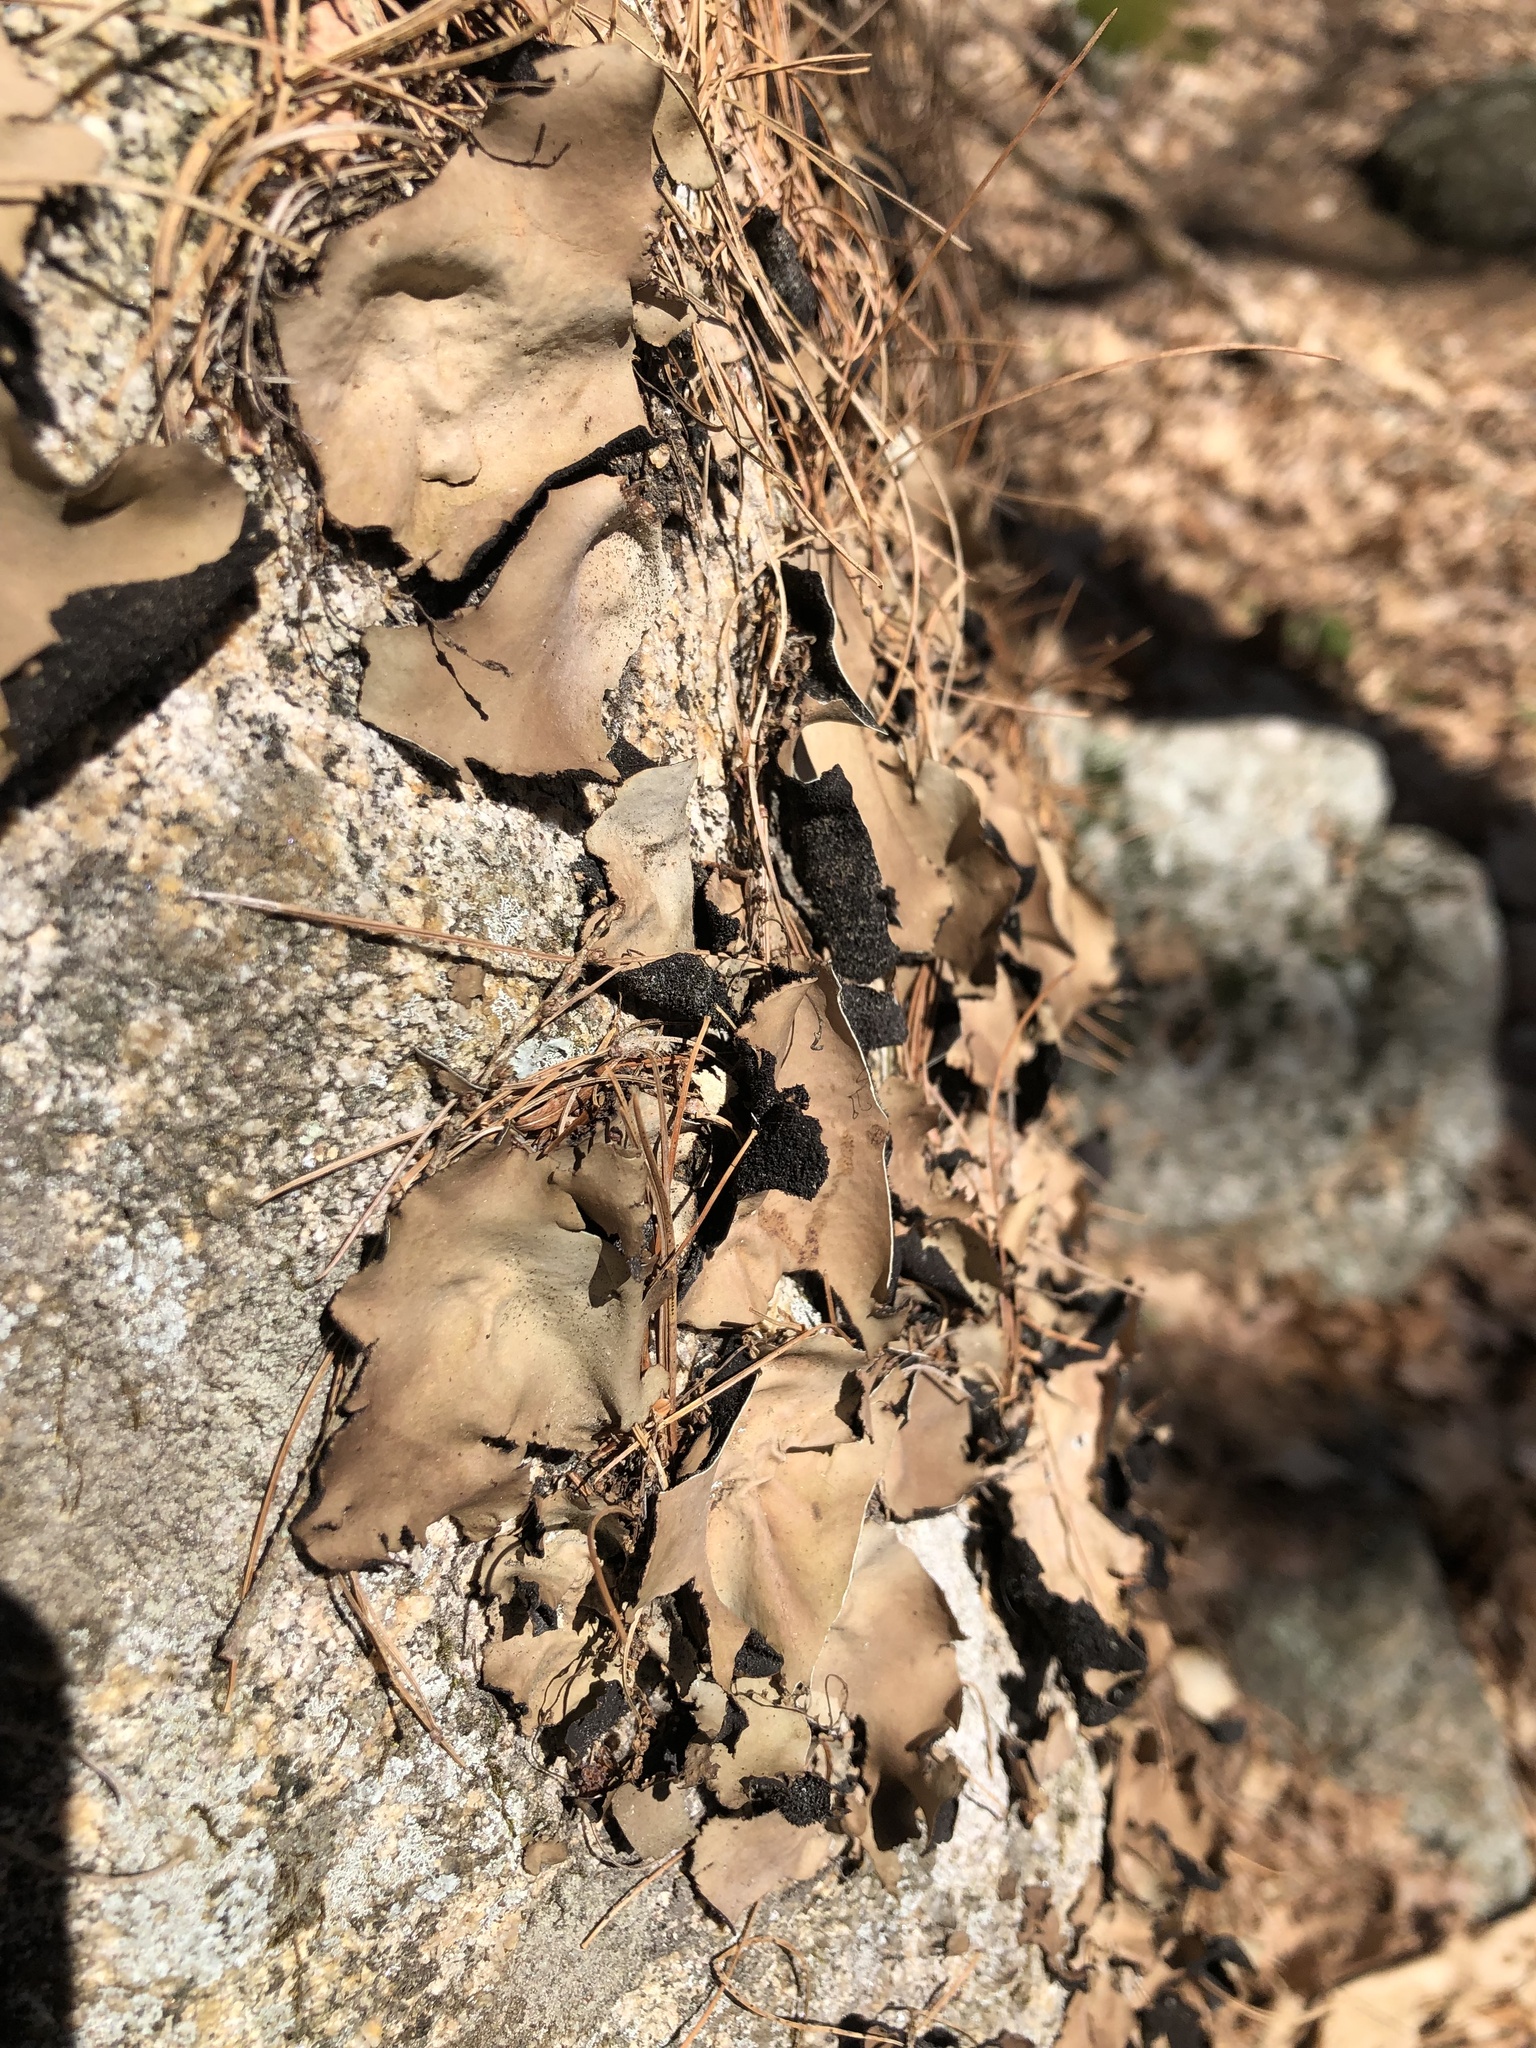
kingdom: Fungi
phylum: Ascomycota
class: Lecanoromycetes
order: Umbilicariales
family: Umbilicariaceae
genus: Umbilicaria
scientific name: Umbilicaria mammulata
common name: Smooth rock tripe
